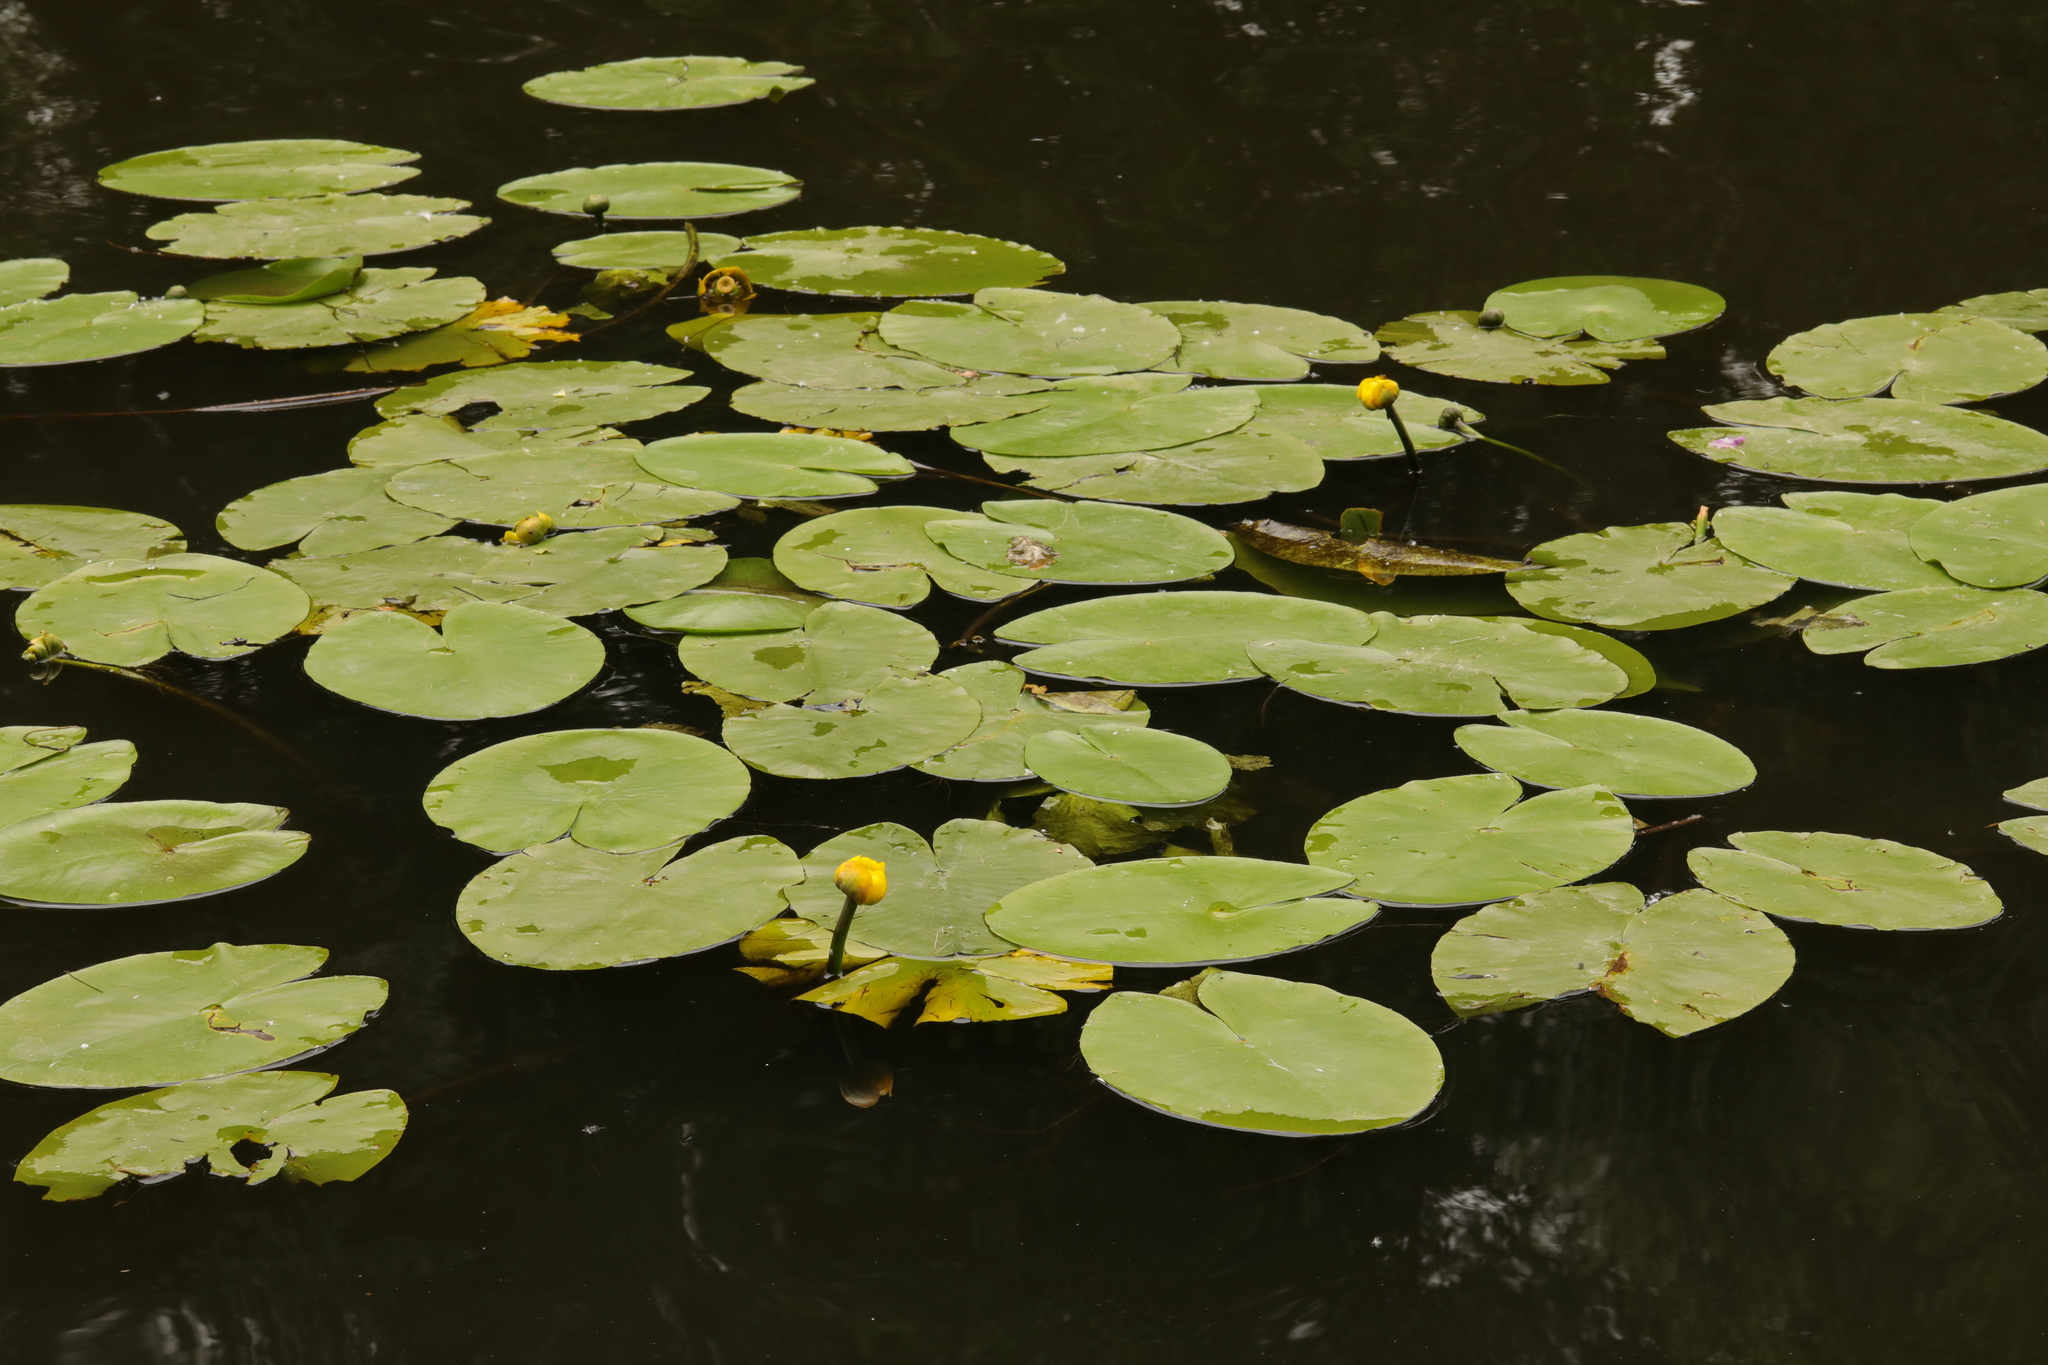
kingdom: Plantae
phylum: Tracheophyta
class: Magnoliopsida
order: Nymphaeales
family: Nymphaeaceae
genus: Nuphar
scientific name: Nuphar lutea
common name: Yellow water-lily
